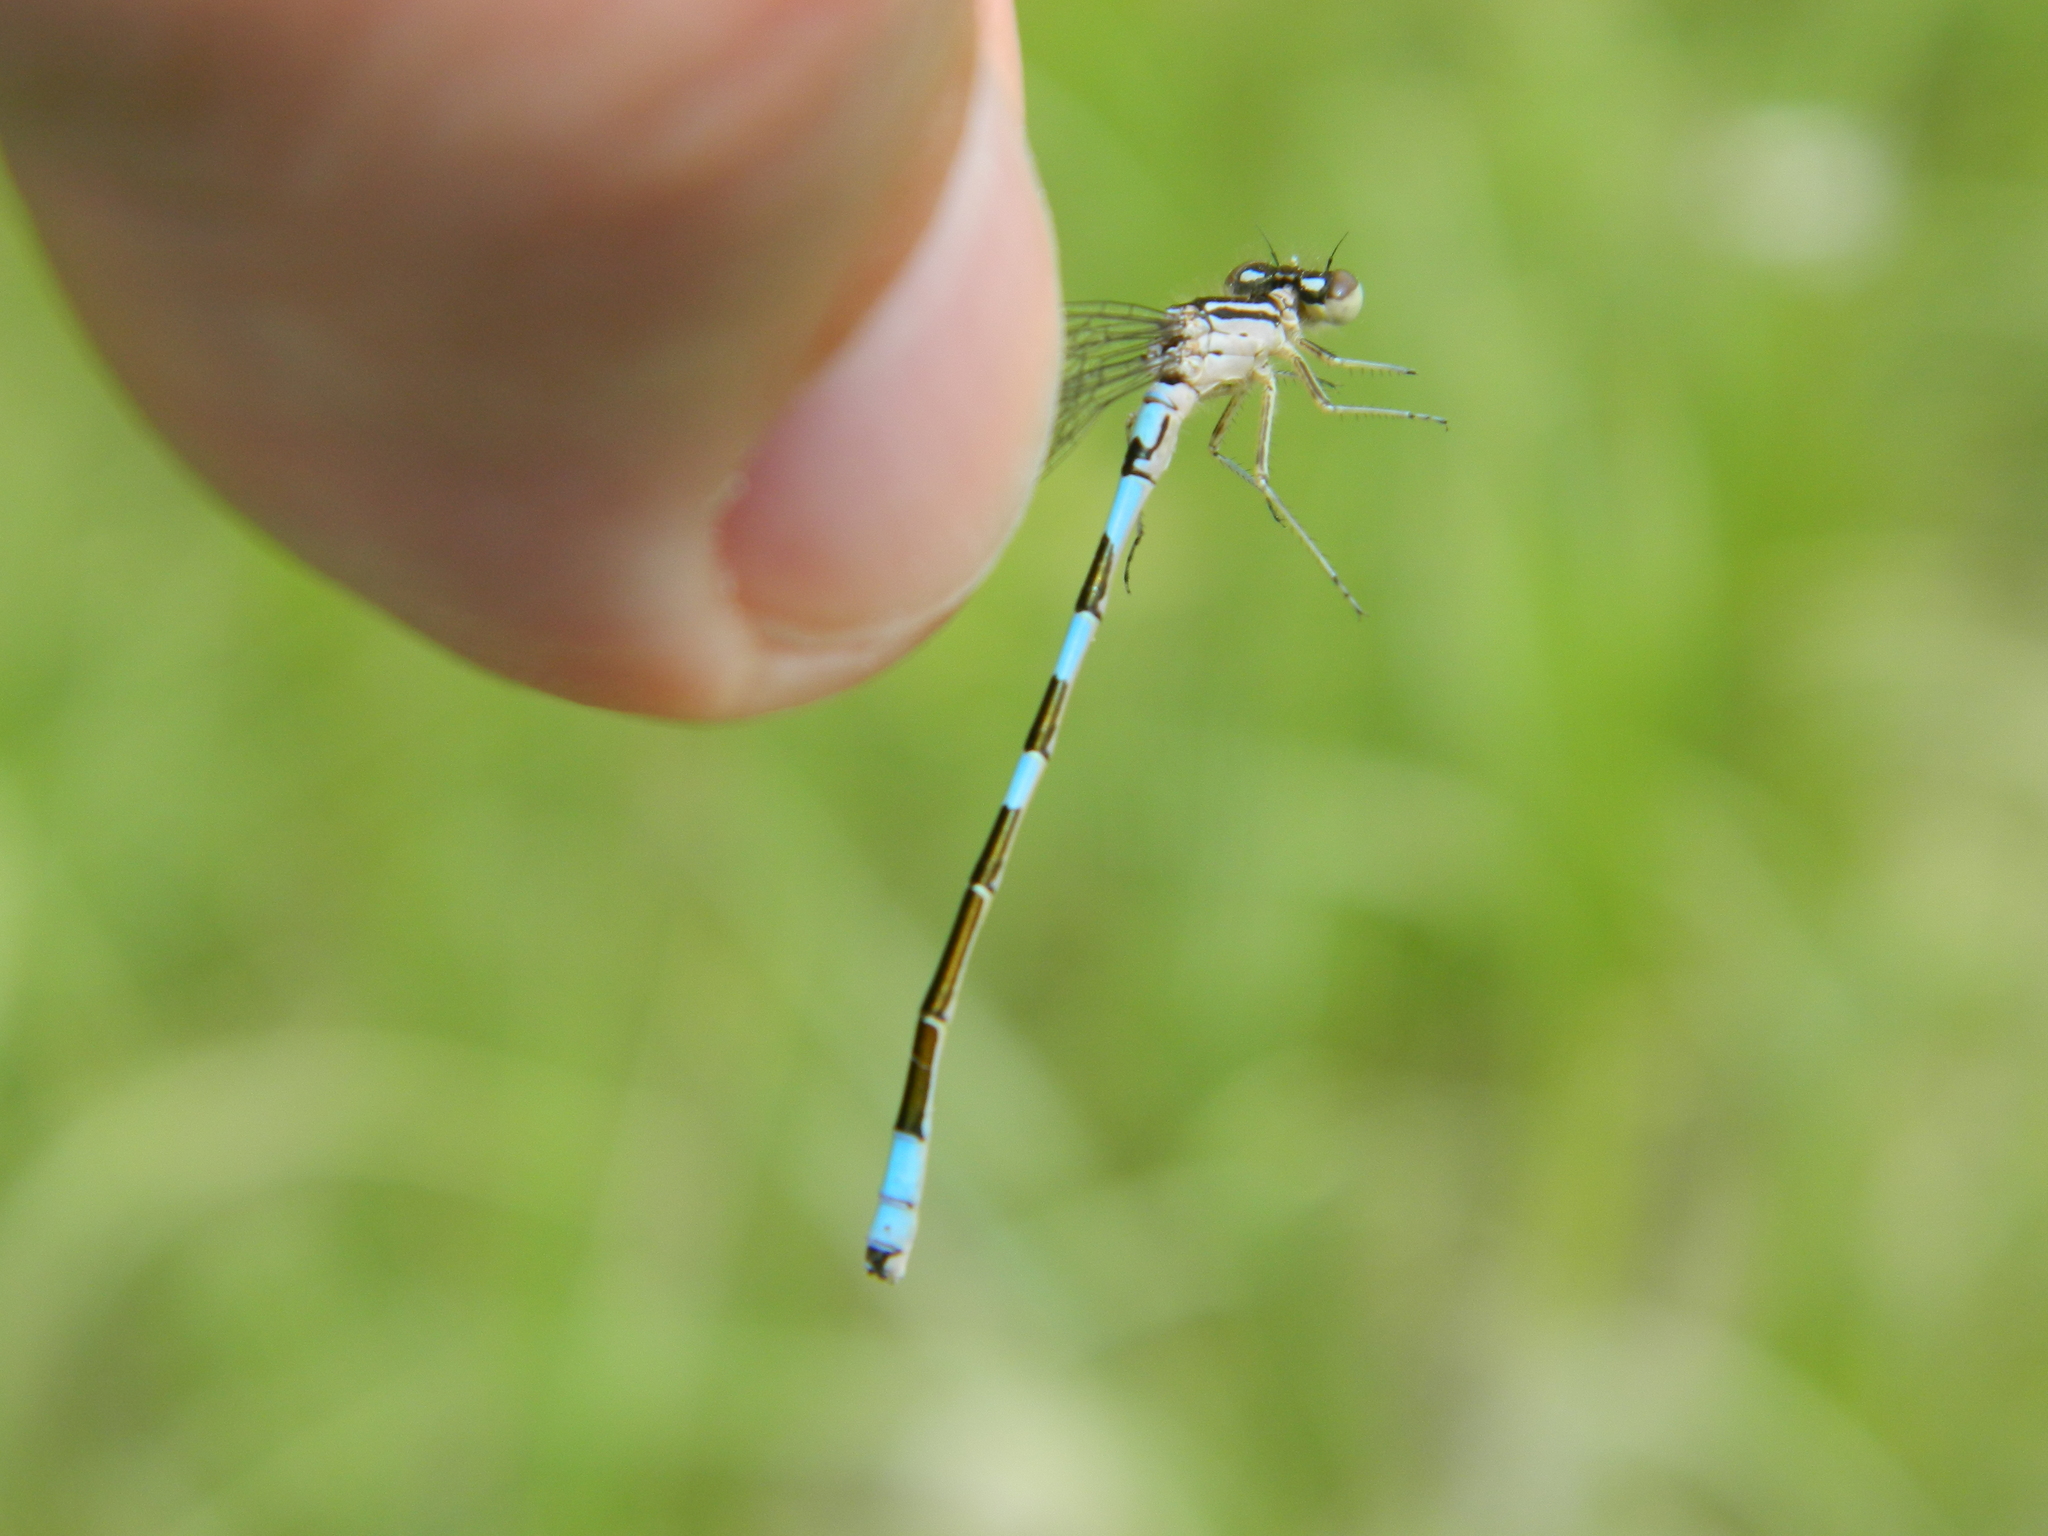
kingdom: Animalia
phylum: Arthropoda
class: Insecta
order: Odonata
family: Coenagrionidae
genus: Coenagrion
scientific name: Coenagrion resolutum
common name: Taiga bluet
